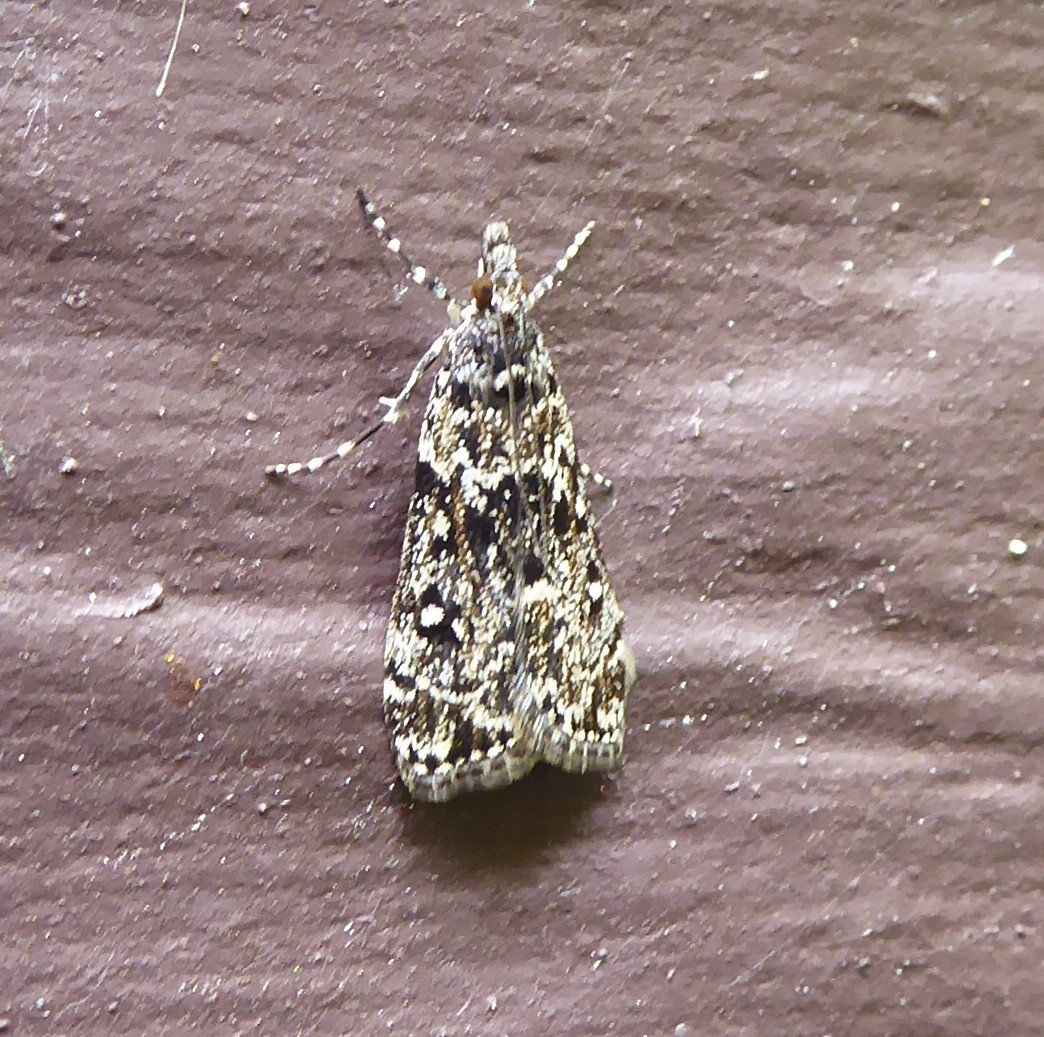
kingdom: Animalia
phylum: Arthropoda
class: Insecta
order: Lepidoptera
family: Crambidae
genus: Eudonia
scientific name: Eudonia philerga
